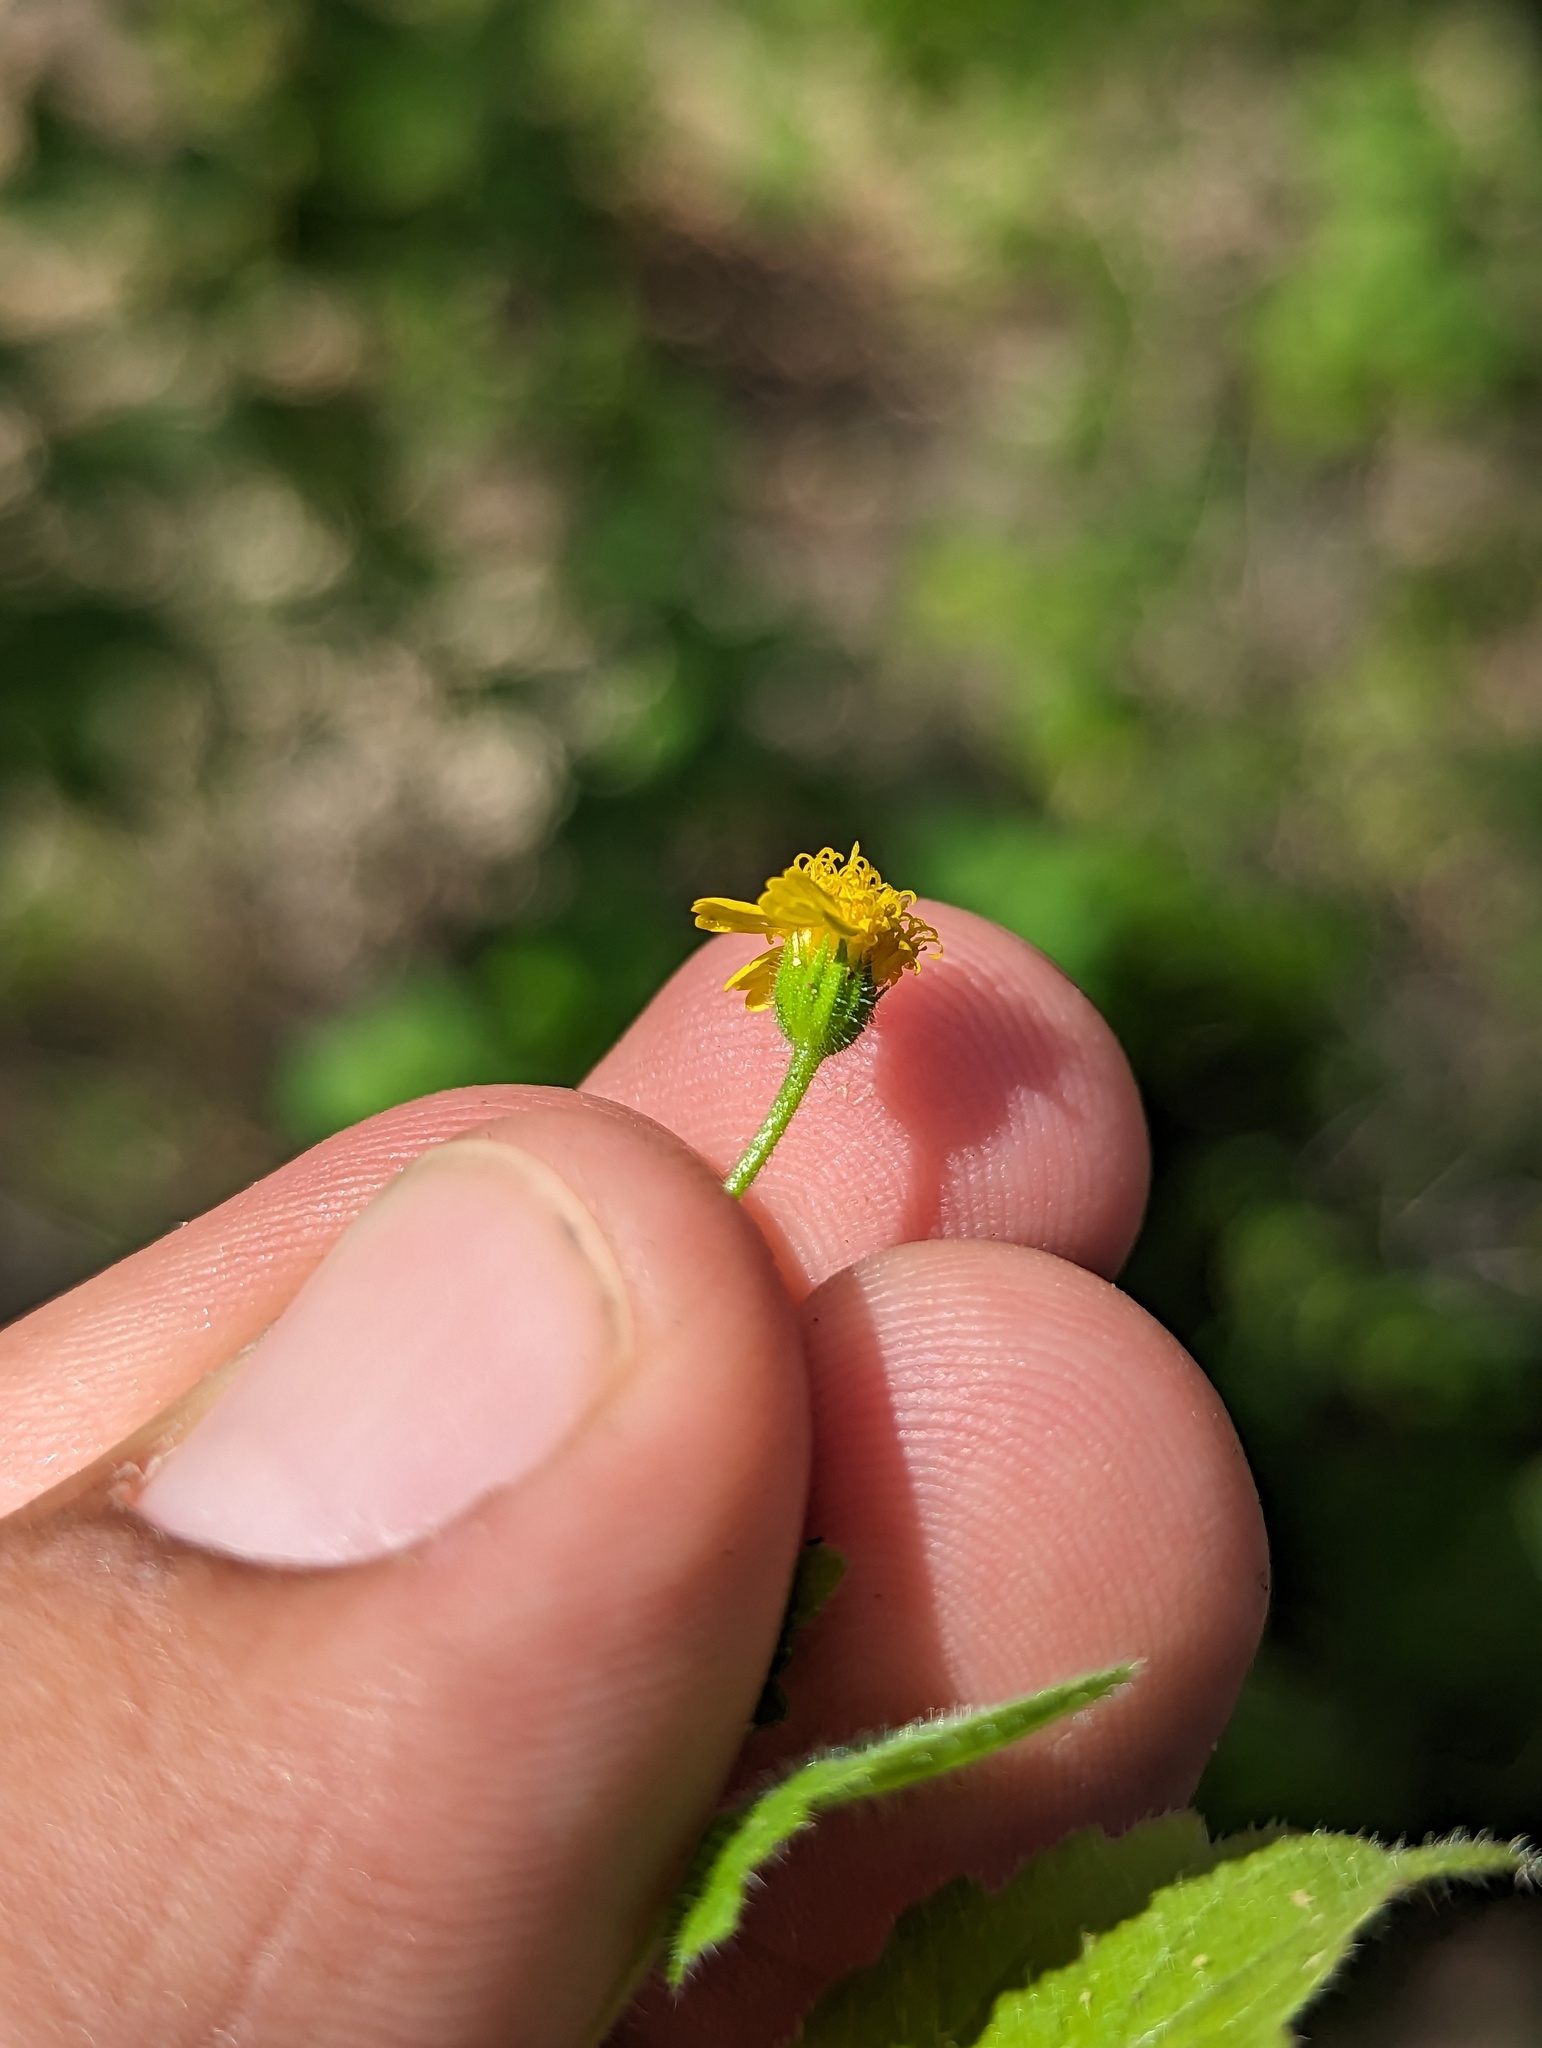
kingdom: Plantae
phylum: Tracheophyta
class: Magnoliopsida
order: Asterales
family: Asteraceae
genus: Perityle
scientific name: Perityle cuneata
